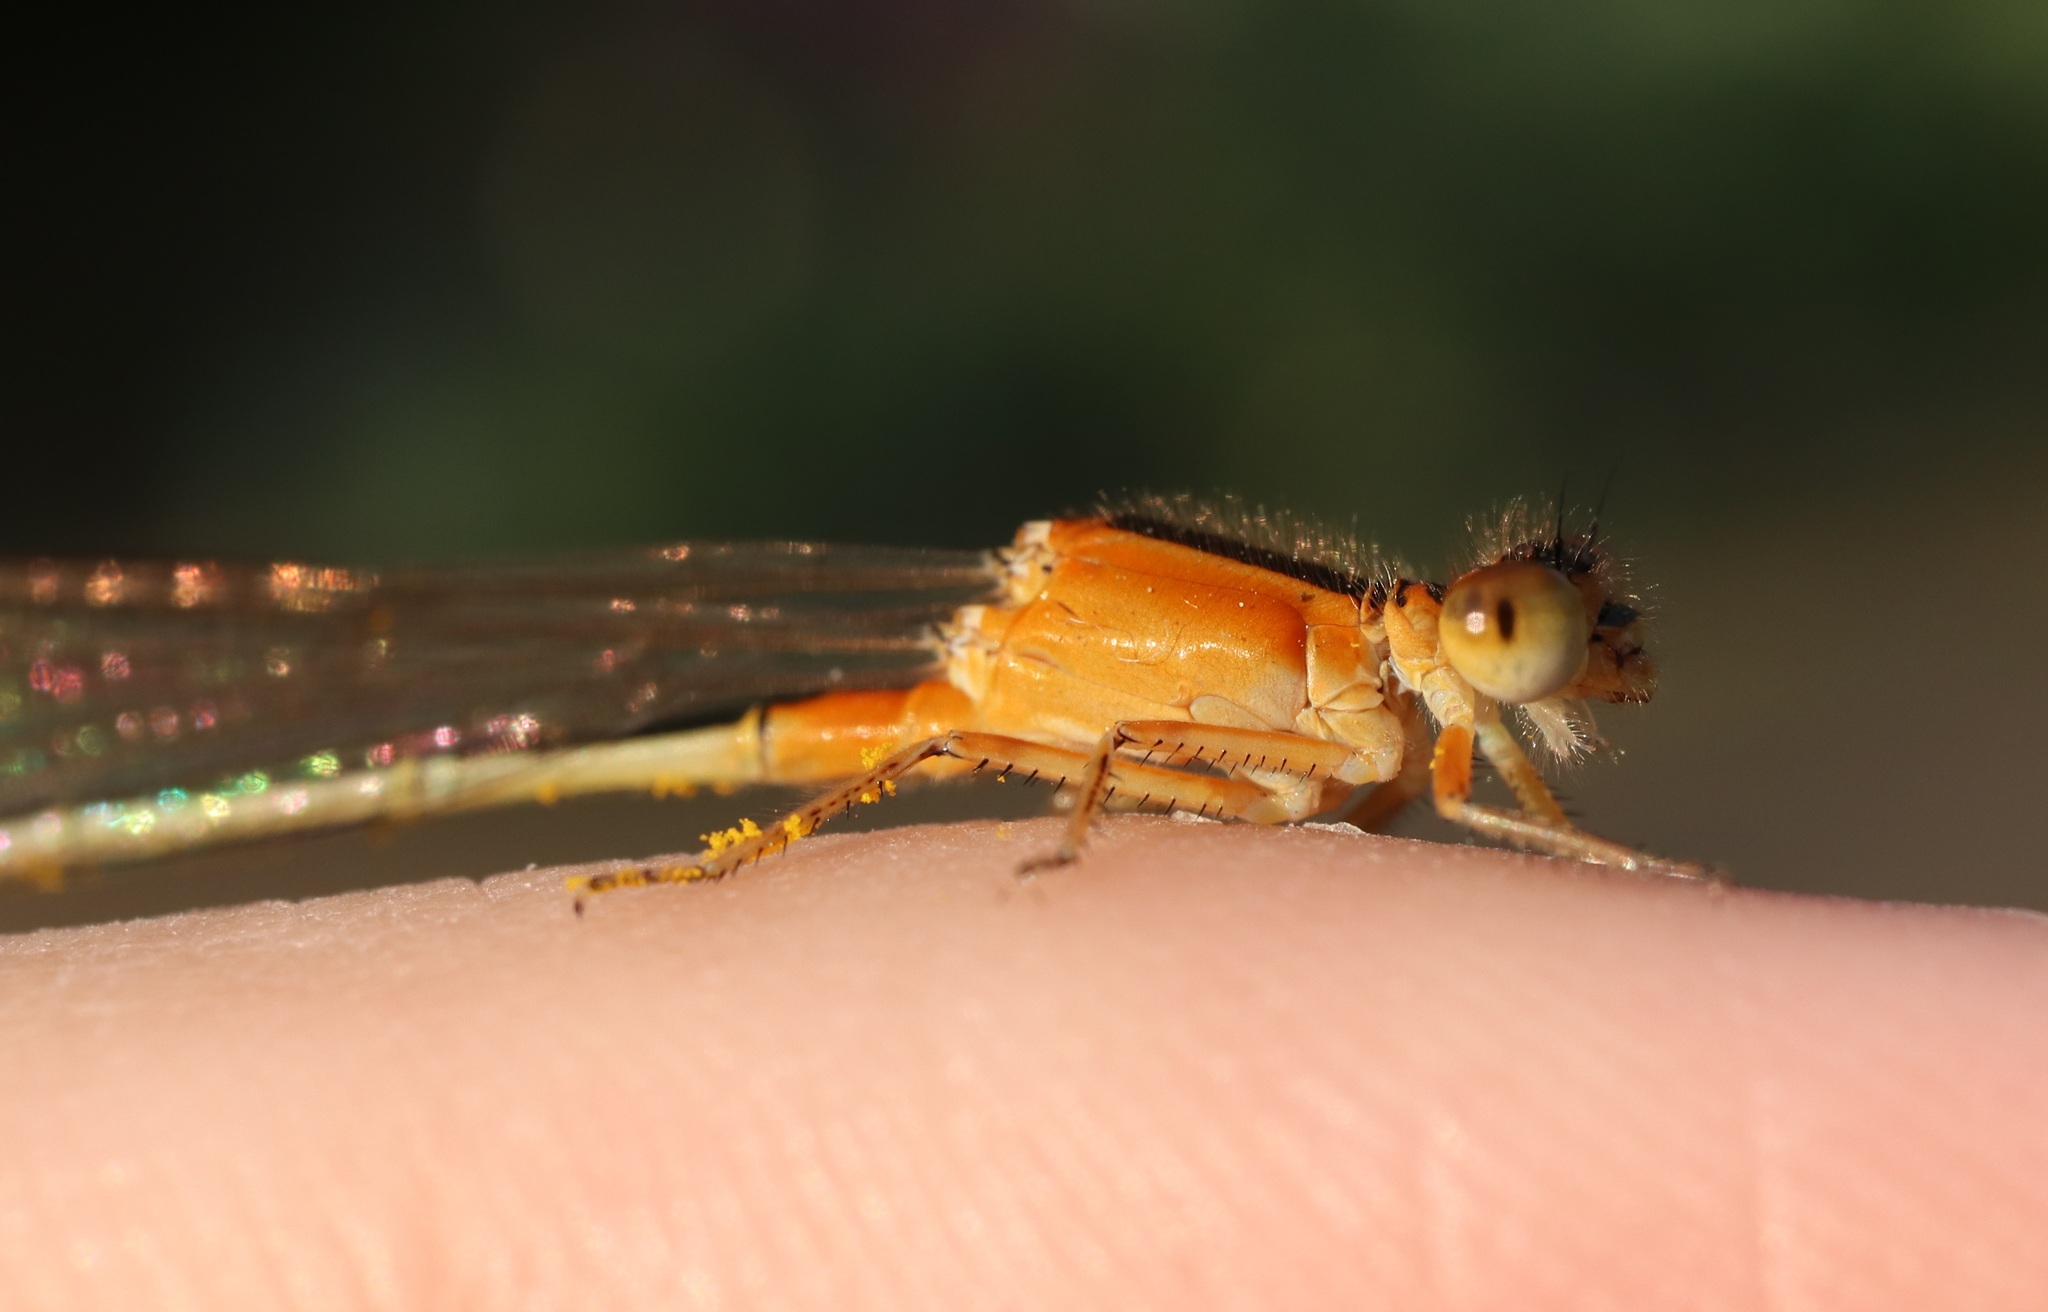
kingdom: Animalia
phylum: Arthropoda
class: Insecta
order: Odonata
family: Coenagrionidae
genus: Ischnura
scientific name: Ischnura senegalensis
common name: Tropical bluetail
